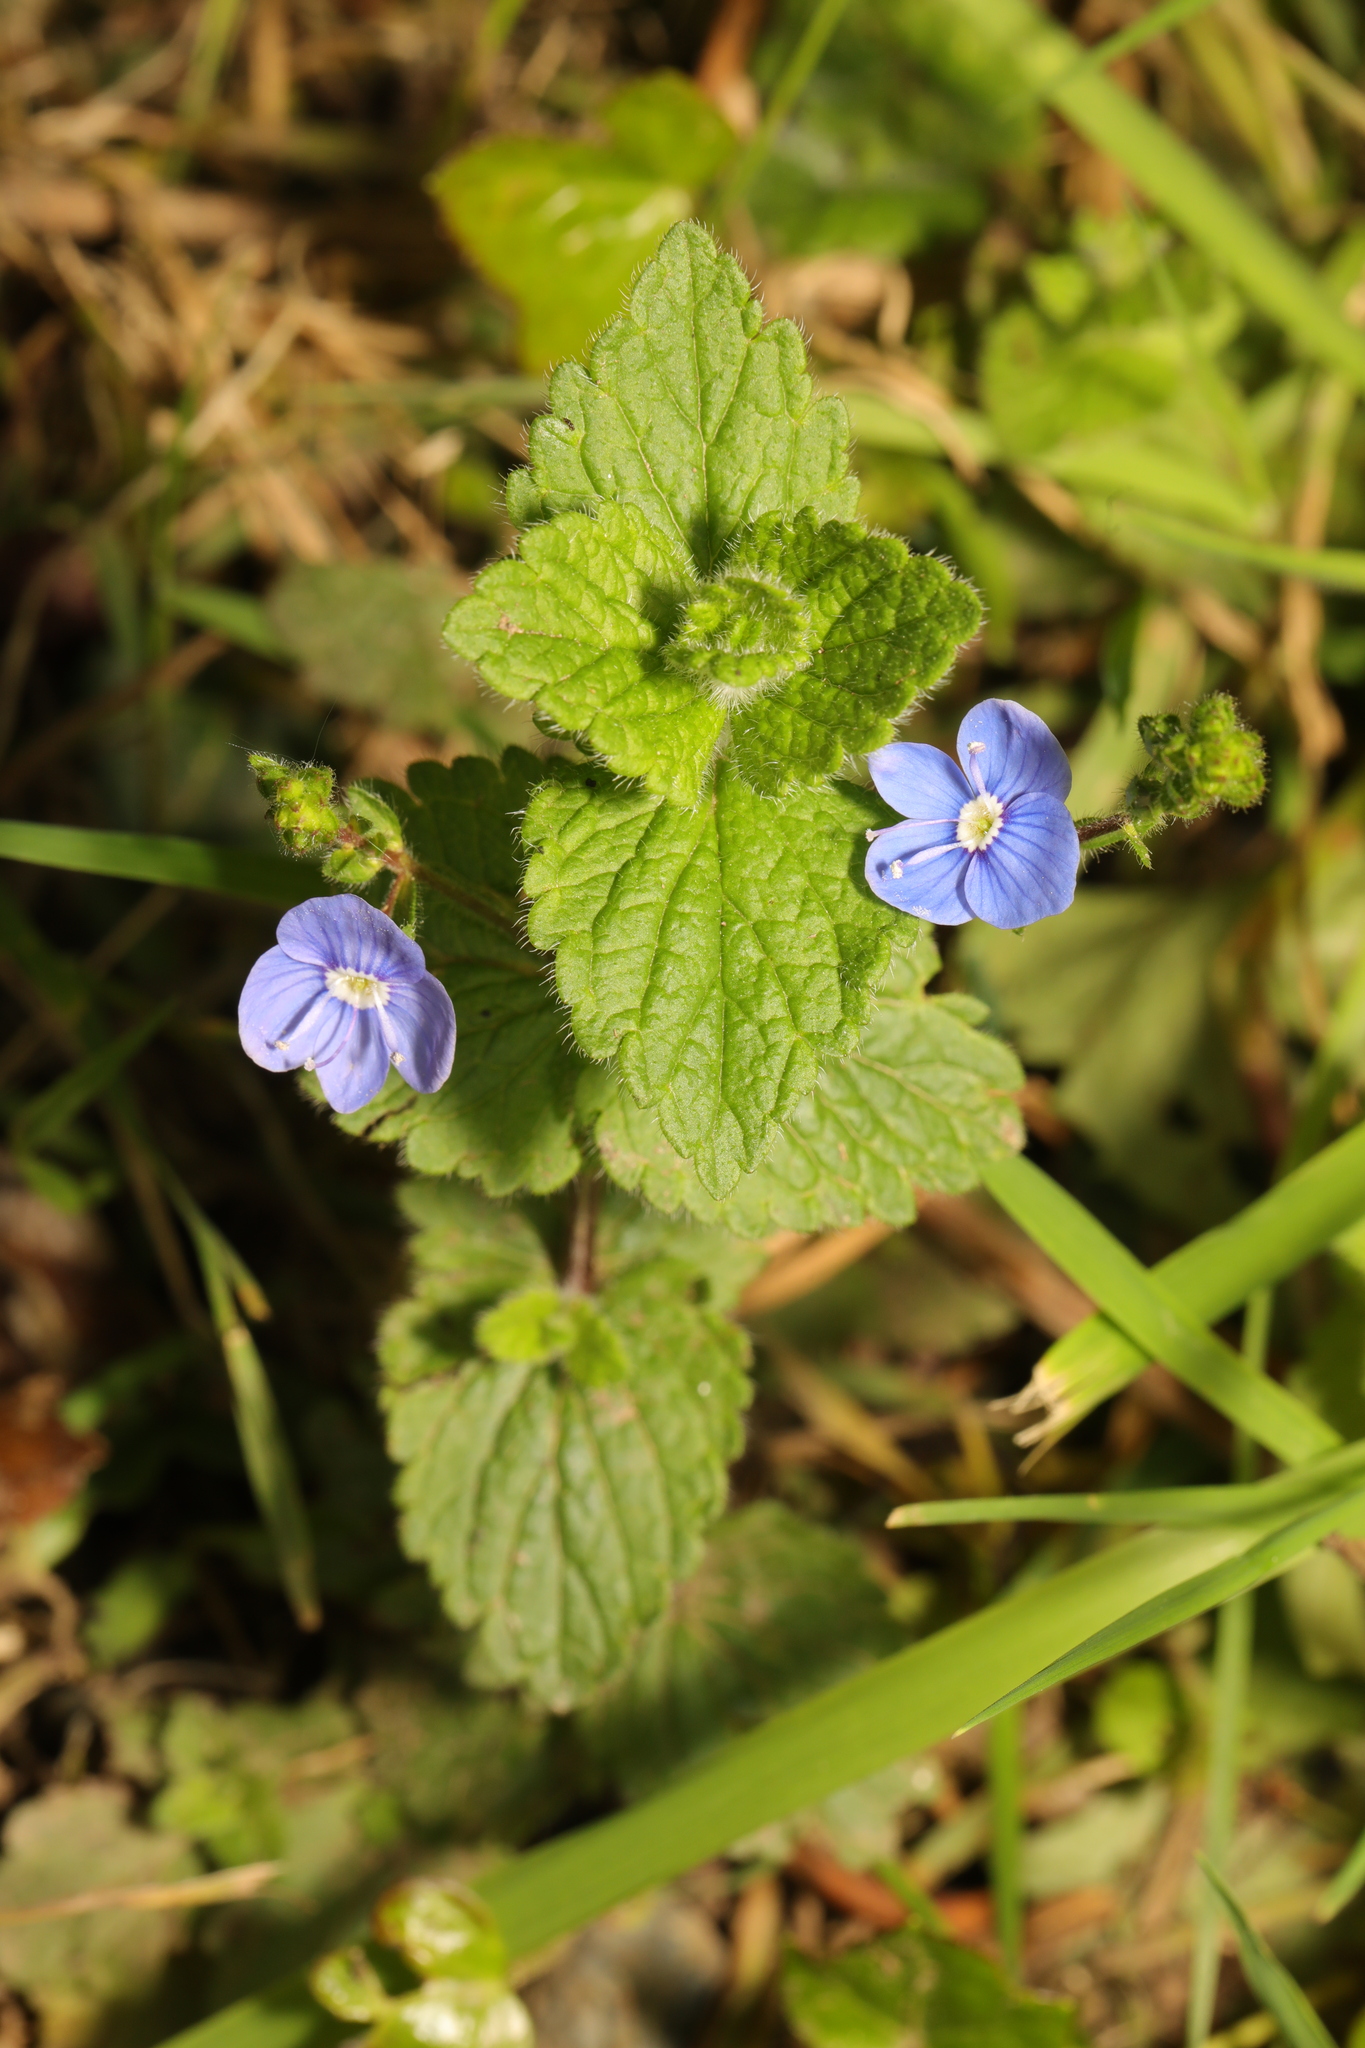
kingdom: Plantae
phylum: Tracheophyta
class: Magnoliopsida
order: Lamiales
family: Plantaginaceae
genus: Veronica
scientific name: Veronica chamaedrys
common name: Germander speedwell
